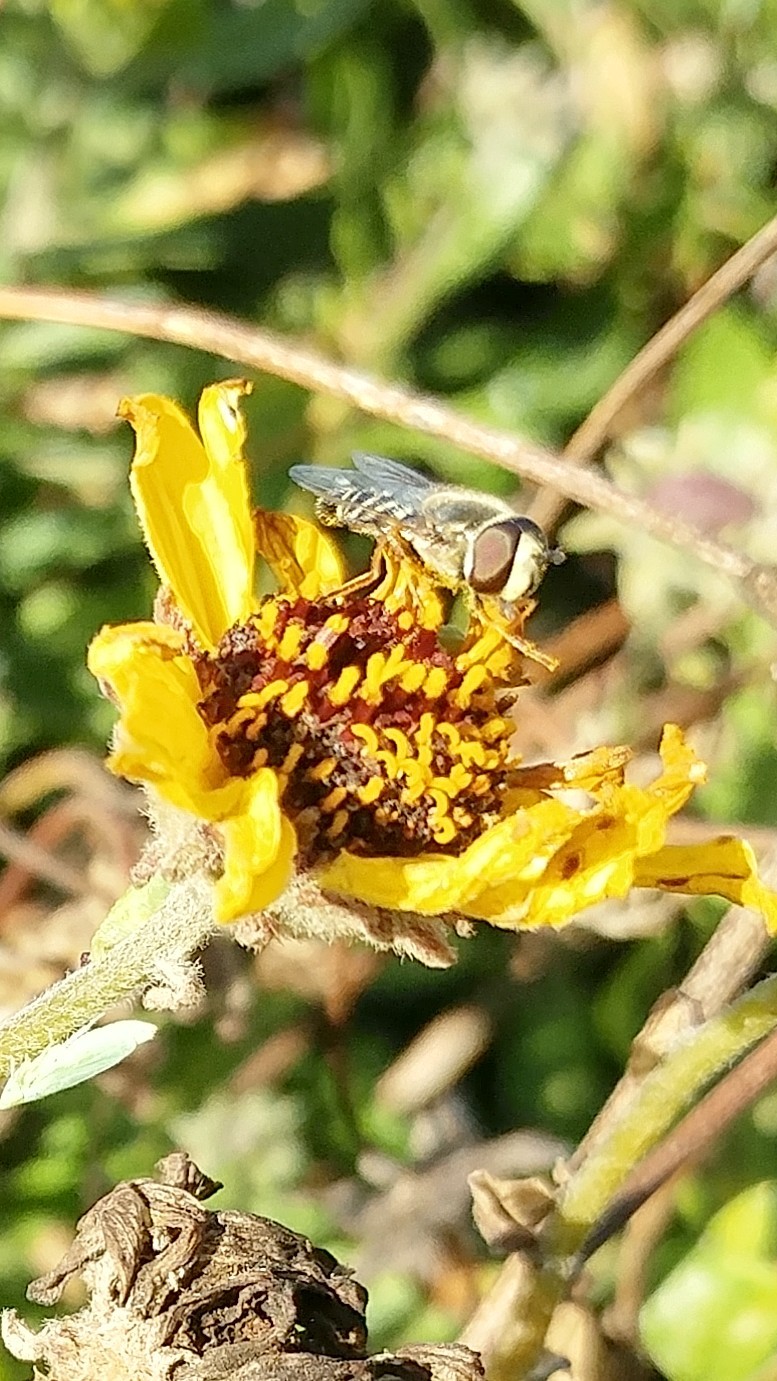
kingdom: Animalia
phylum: Arthropoda
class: Insecta
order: Diptera
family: Syrphidae
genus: Eupeodes
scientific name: Eupeodes volucris
